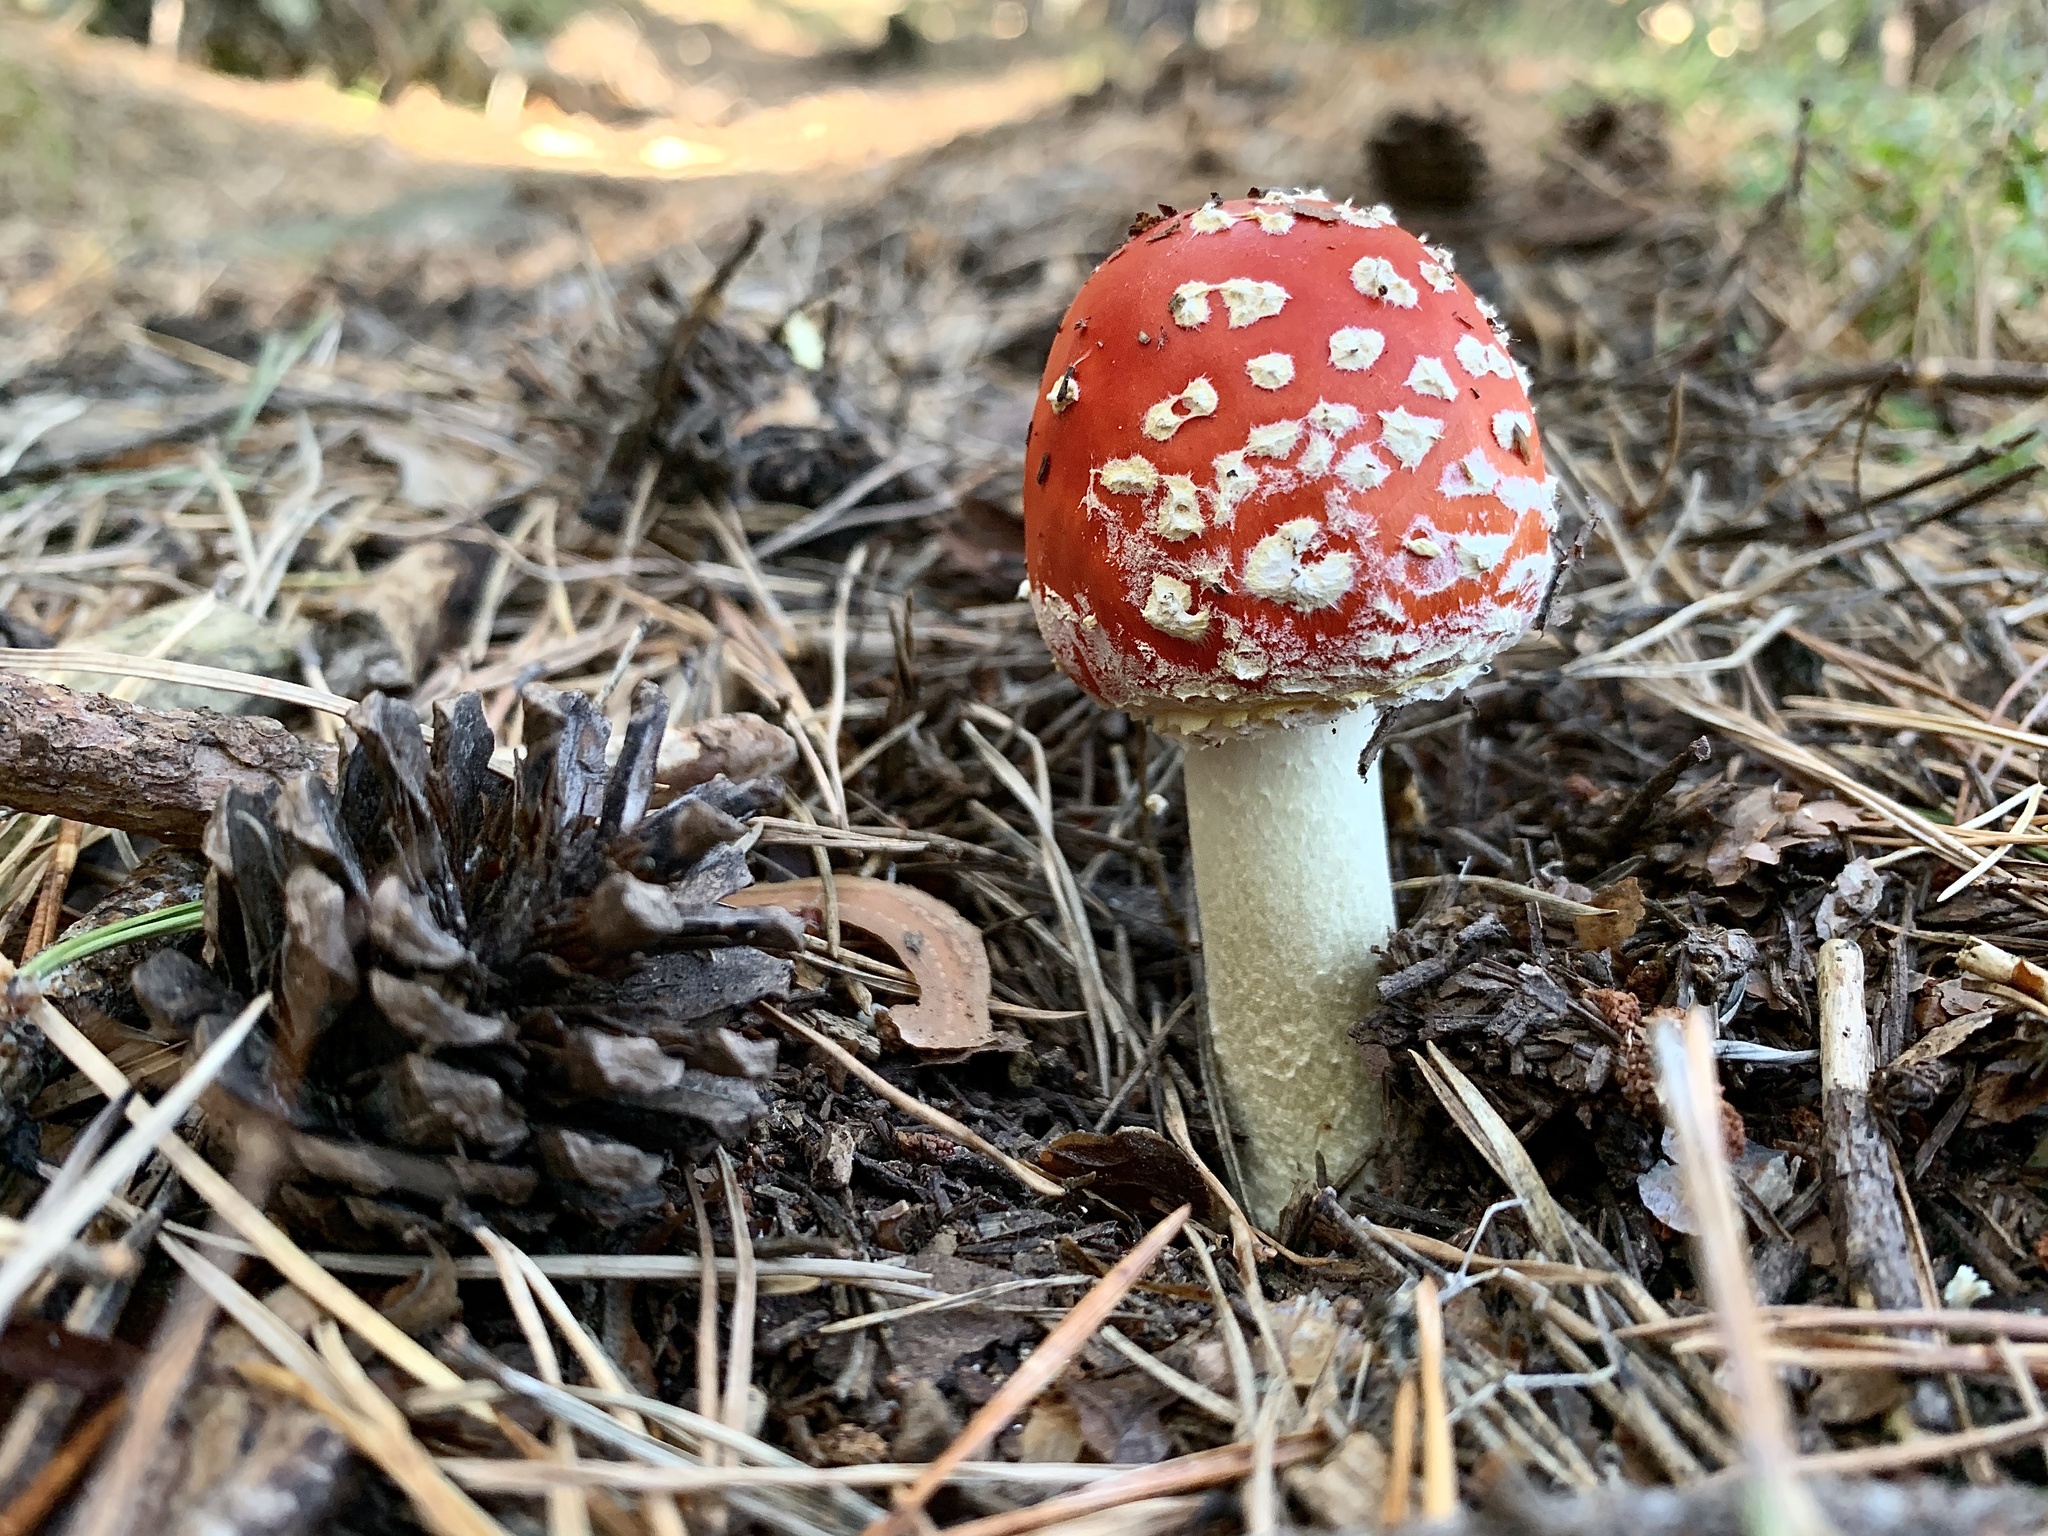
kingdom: Fungi
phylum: Basidiomycota
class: Agaricomycetes
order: Agaricales
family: Amanitaceae
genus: Amanita
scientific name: Amanita muscaria
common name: Fly agaric
